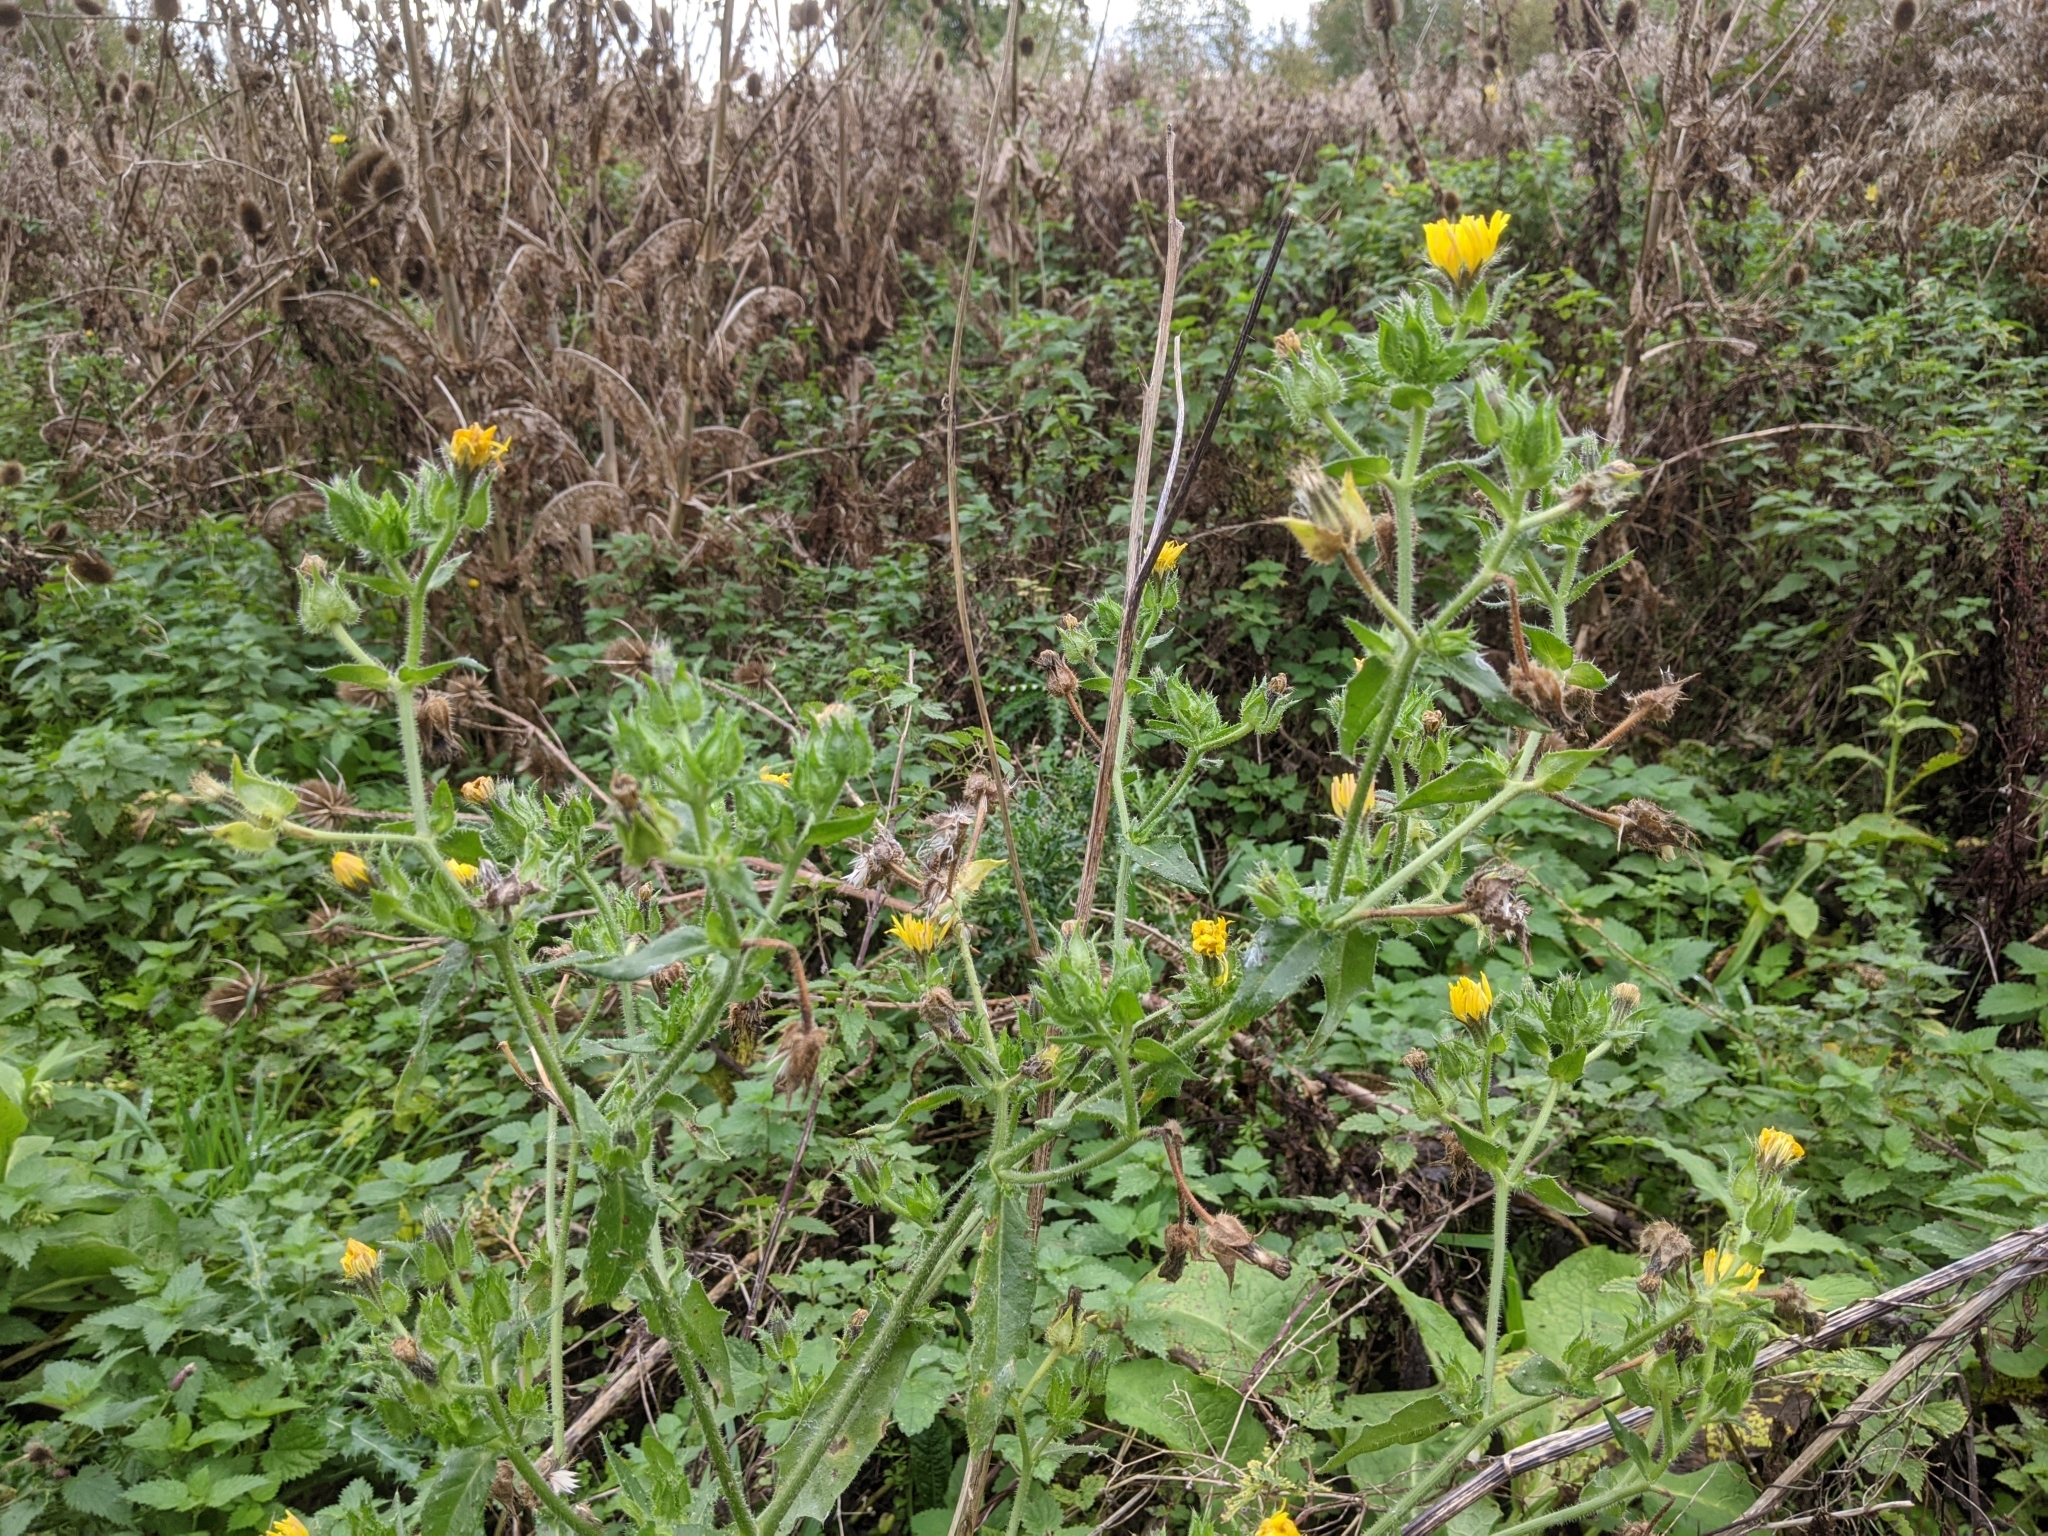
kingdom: Plantae
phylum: Tracheophyta
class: Magnoliopsida
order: Asterales
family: Asteraceae
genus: Helminthotheca
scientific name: Helminthotheca echioides
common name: Ox-tongue
